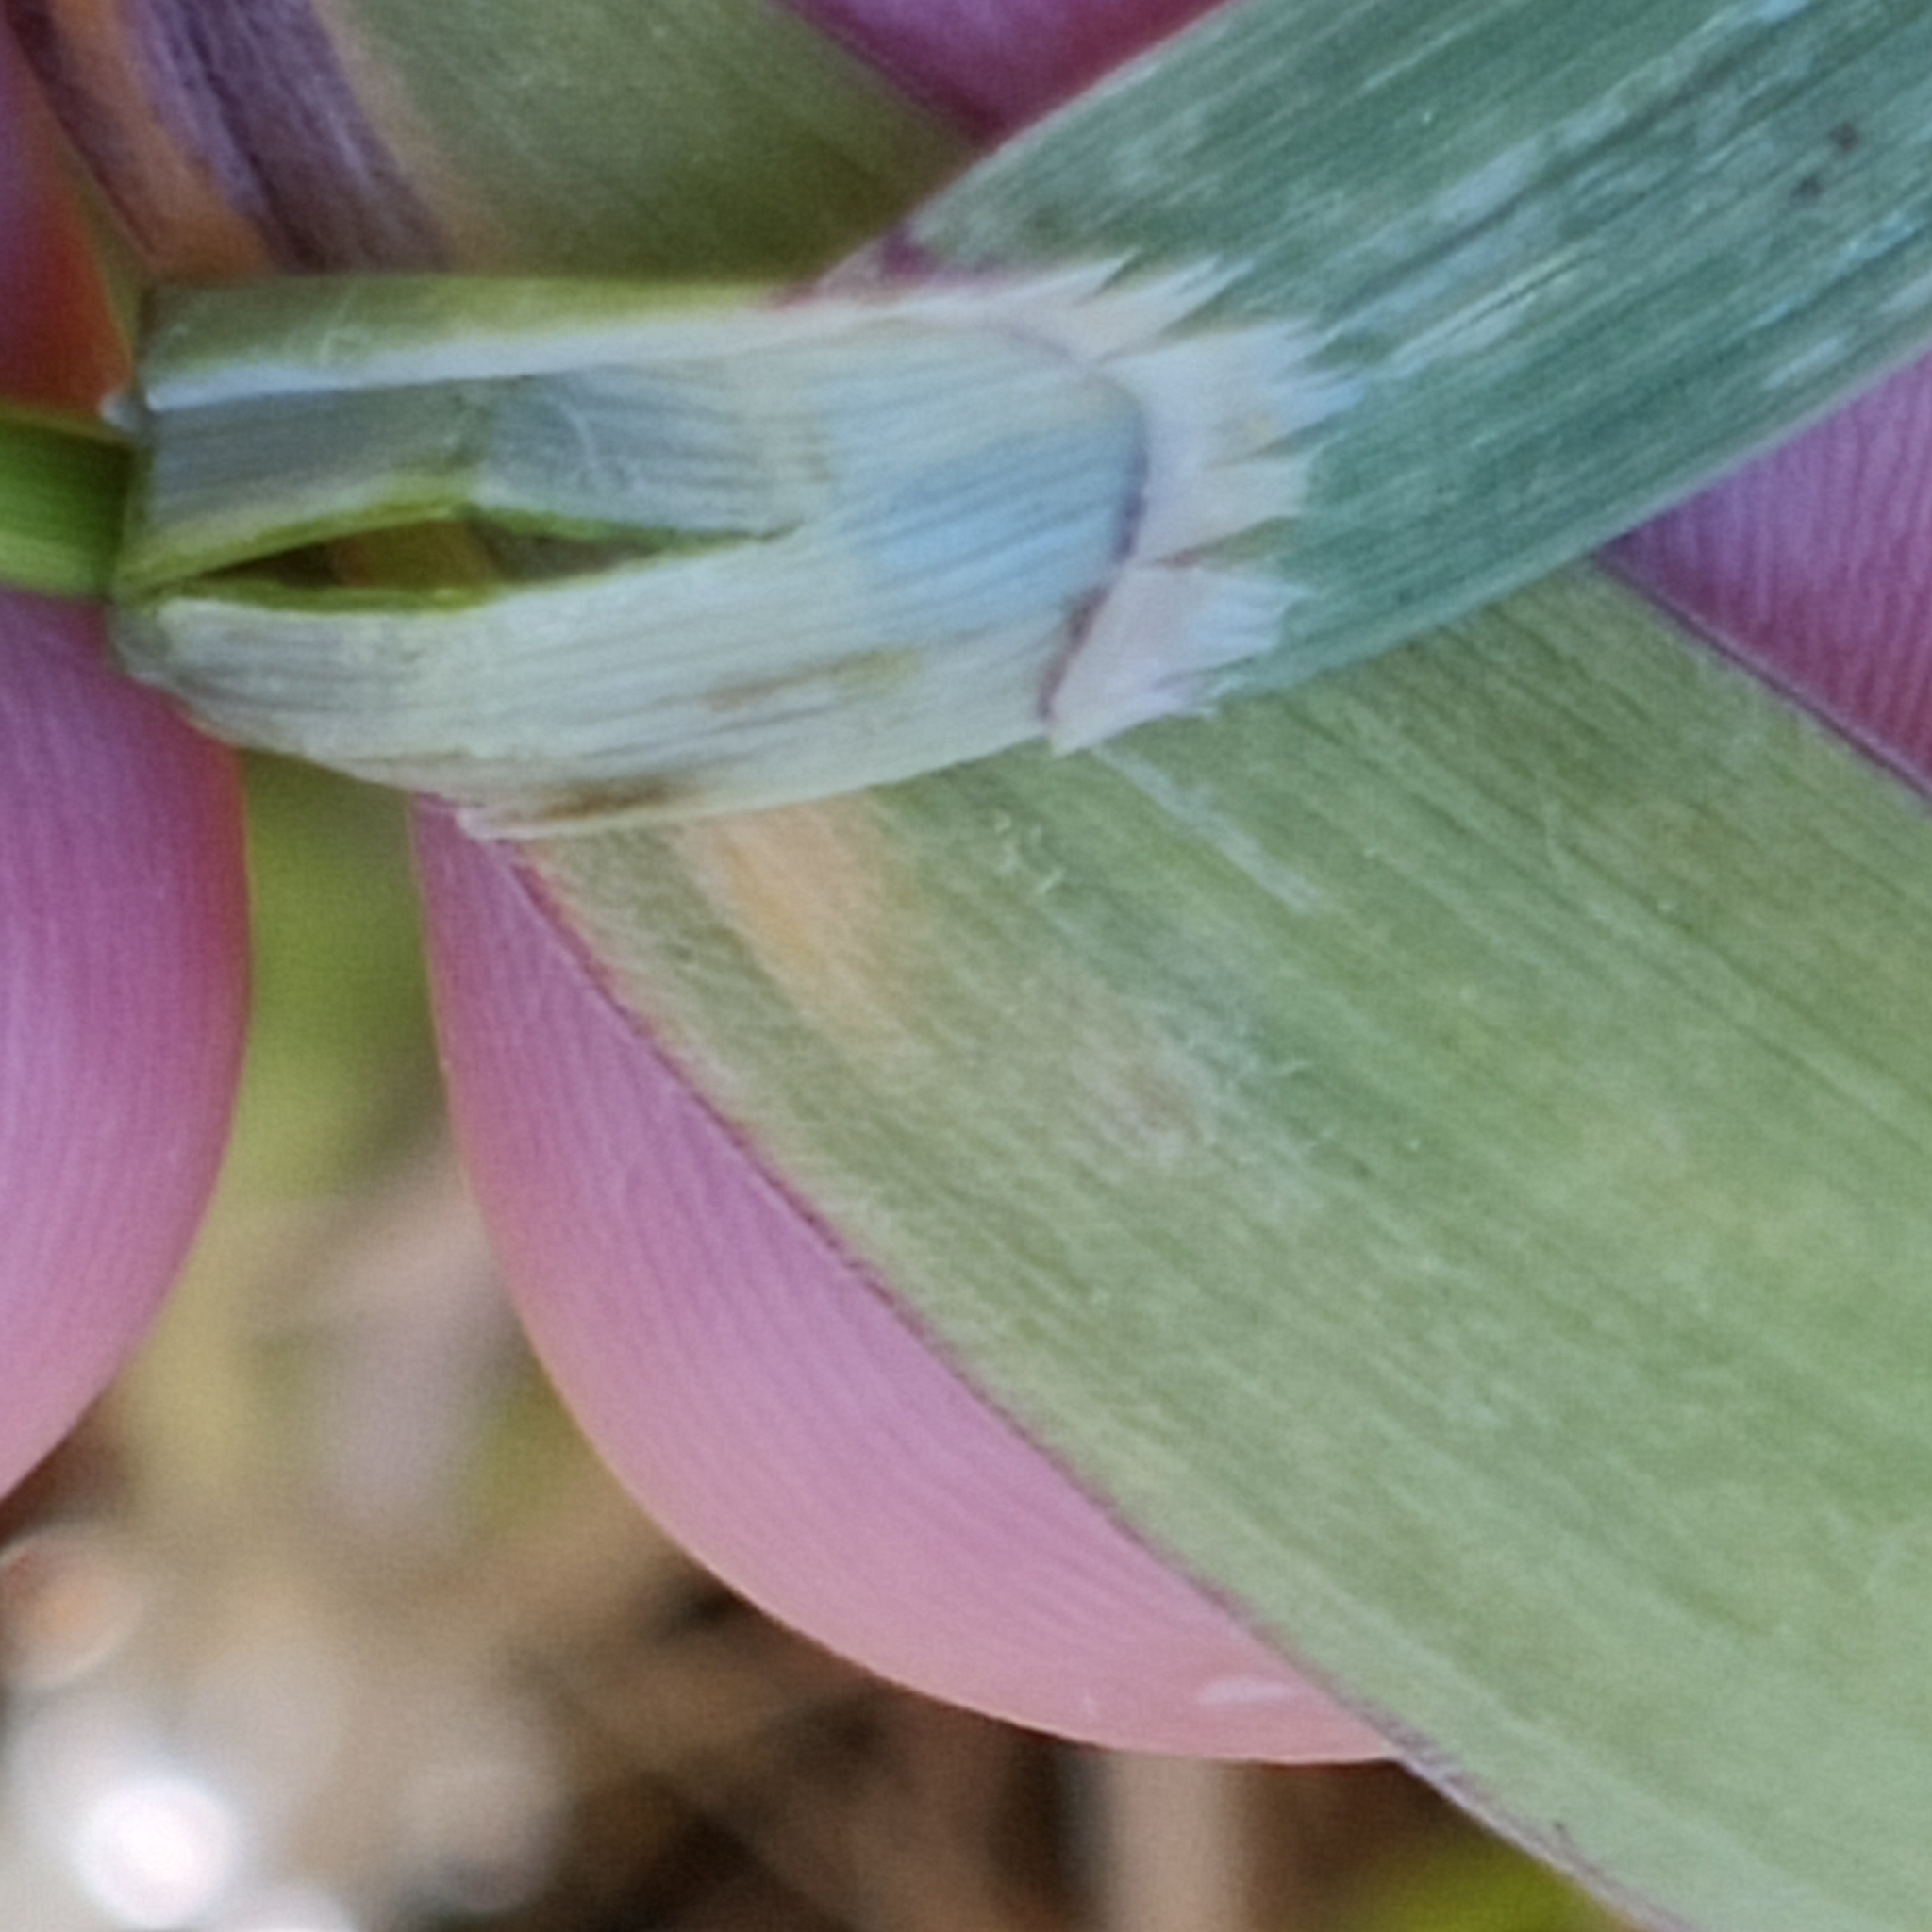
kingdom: Plantae
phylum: Tracheophyta
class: Liliopsida
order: Poales
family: Poaceae
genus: Bromus
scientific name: Bromus catharticus
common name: Rescuegrass
